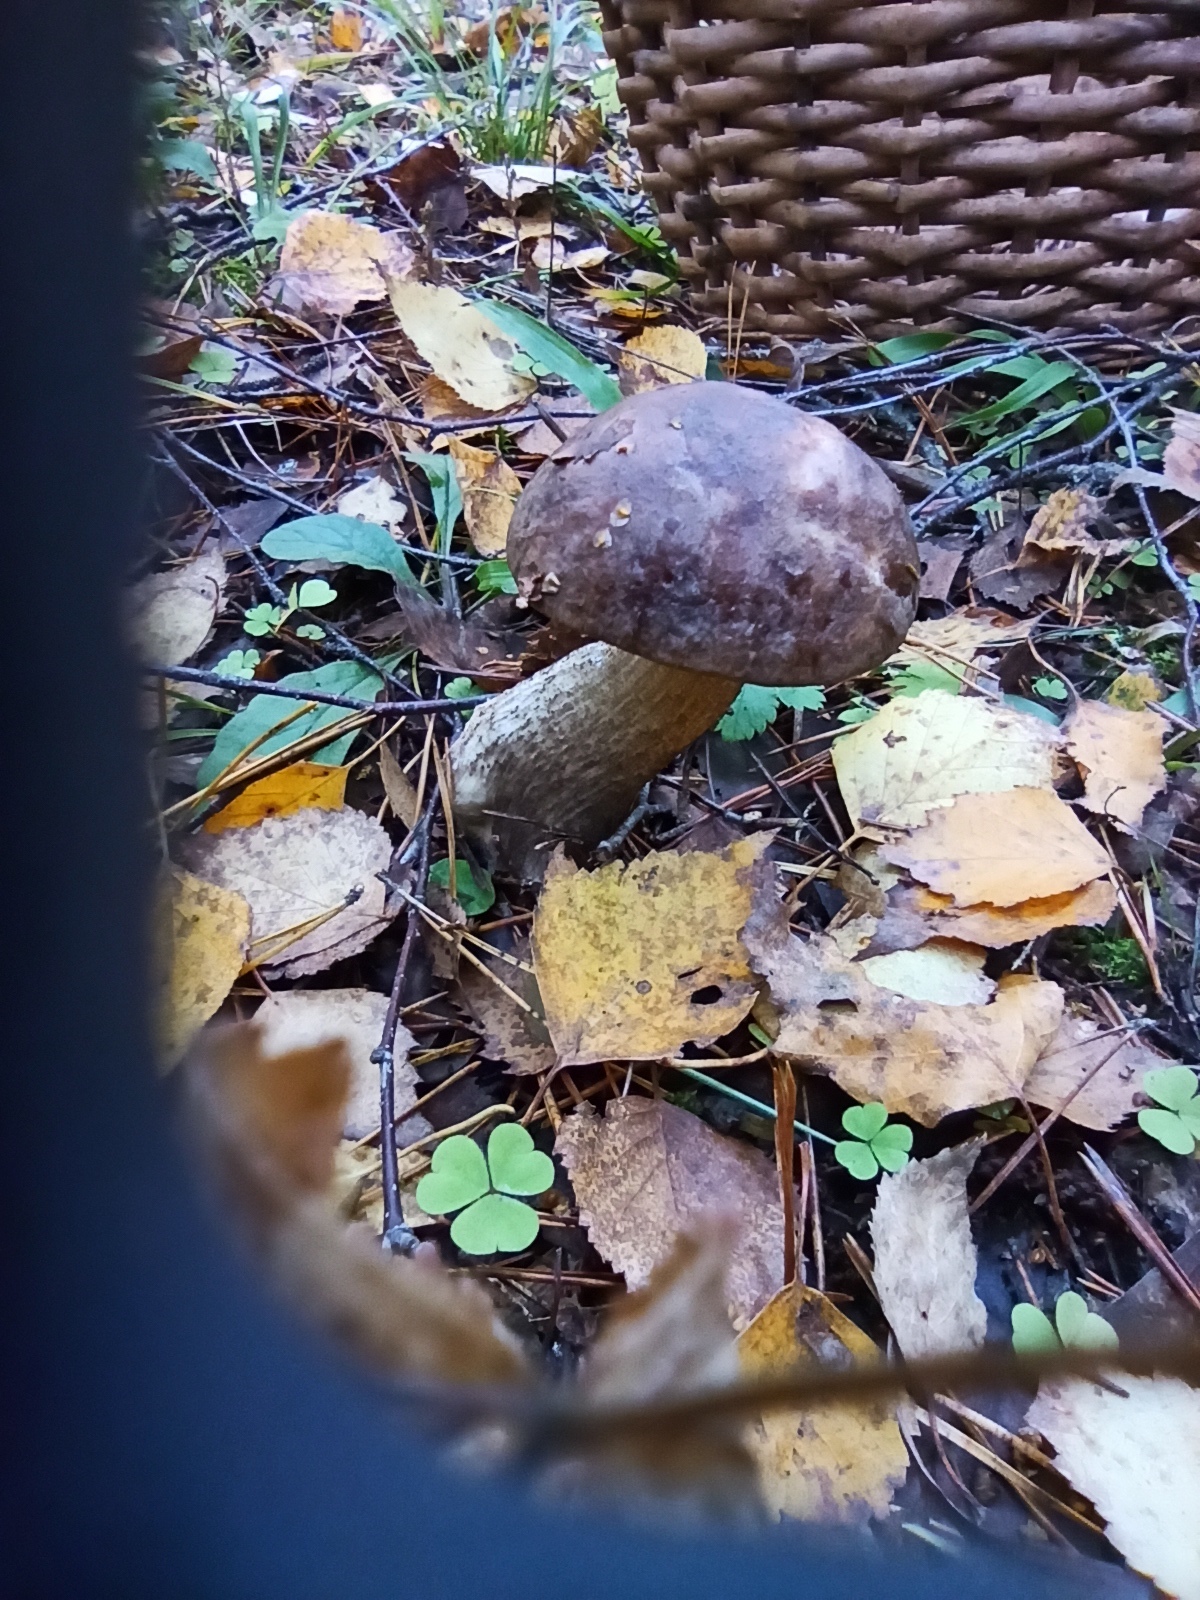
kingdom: Fungi
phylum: Basidiomycota
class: Agaricomycetes
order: Boletales
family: Boletaceae
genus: Leccinum
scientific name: Leccinum scabrum
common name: Blushing bolete
